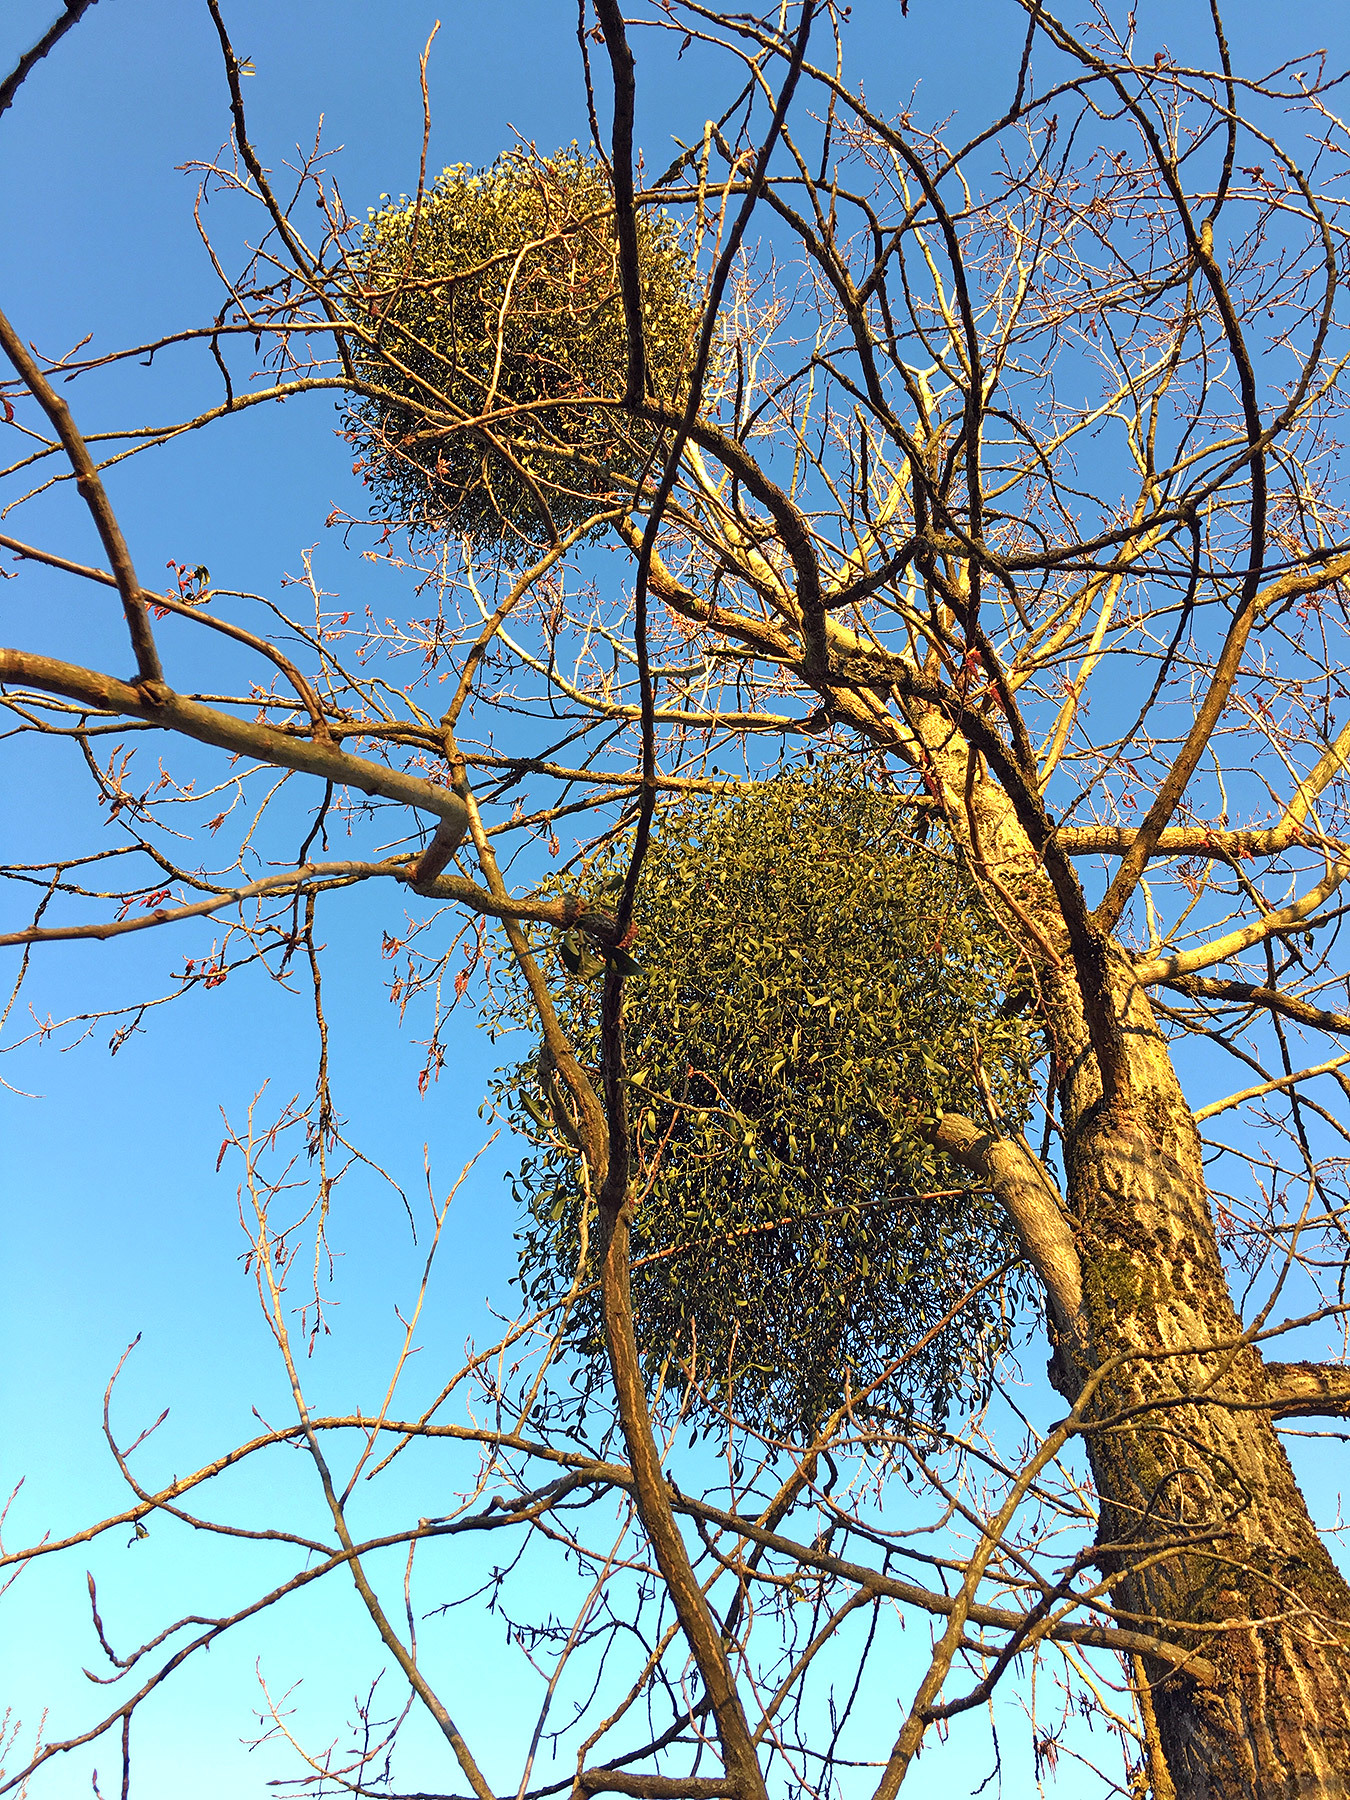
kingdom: Plantae
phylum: Tracheophyta
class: Magnoliopsida
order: Santalales
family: Viscaceae
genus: Viscum
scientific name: Viscum album
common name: Mistletoe
